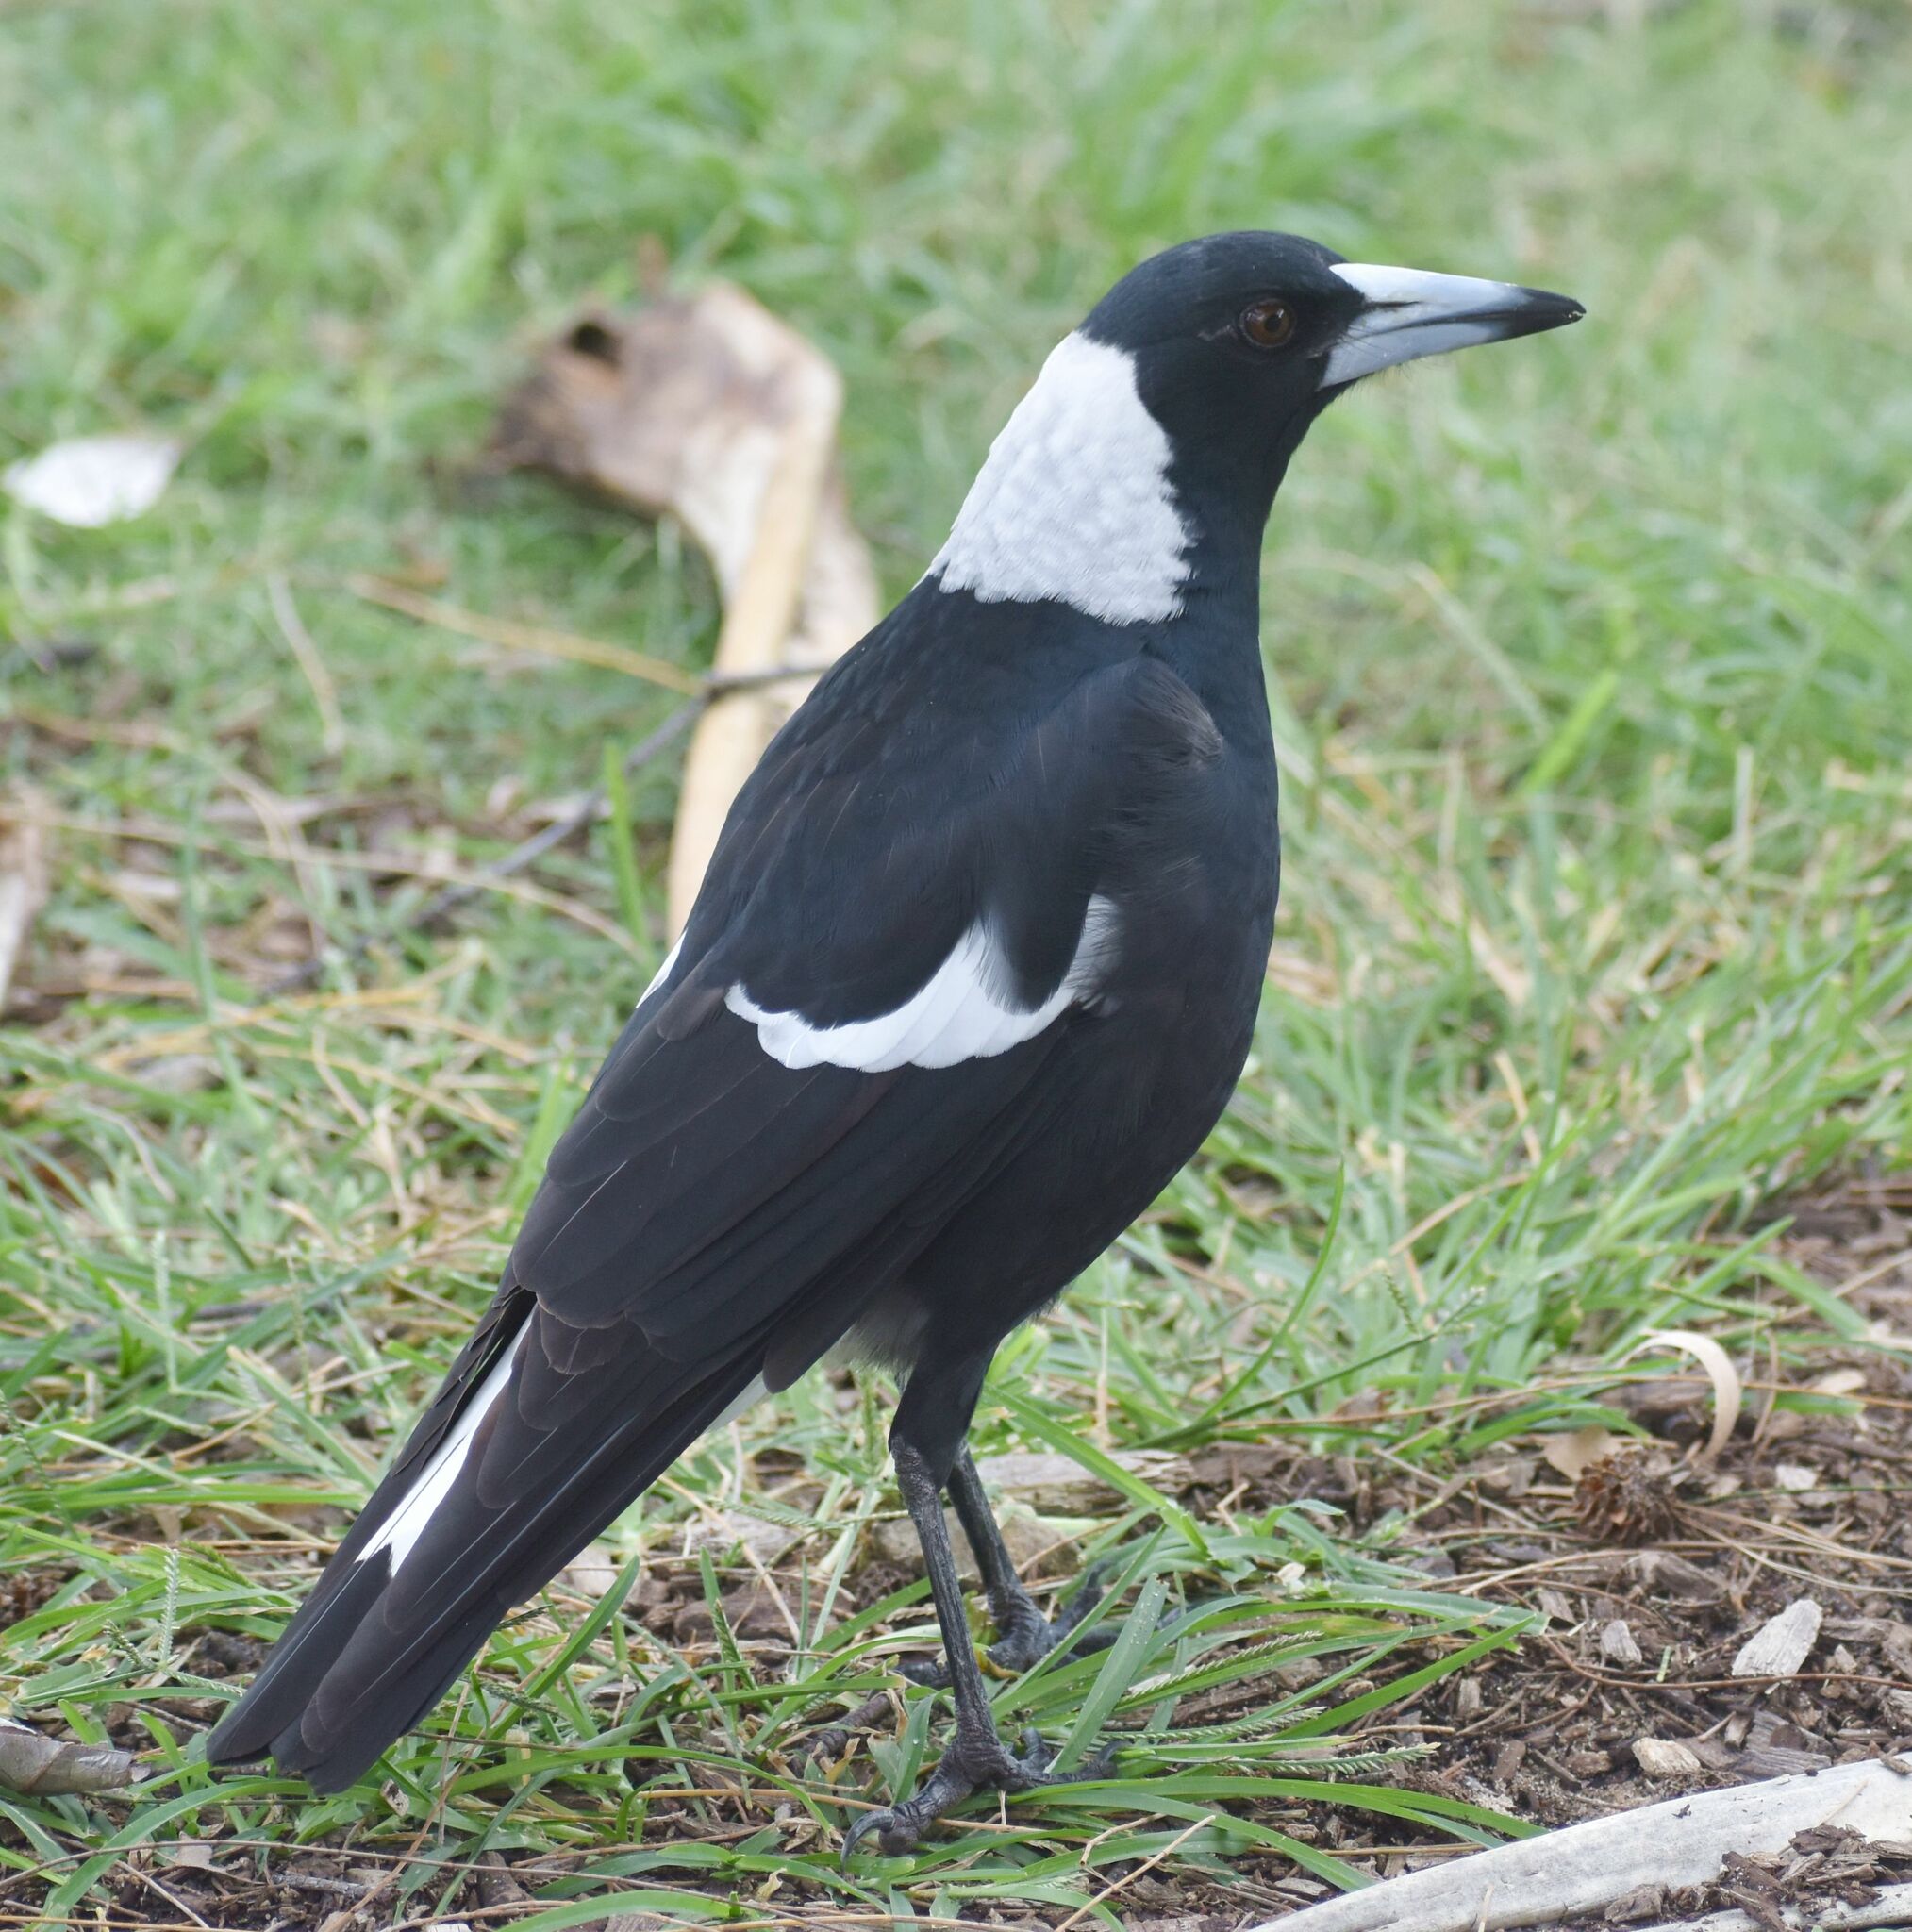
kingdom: Animalia
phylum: Chordata
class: Aves
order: Passeriformes
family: Cracticidae
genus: Gymnorhina
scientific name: Gymnorhina tibicen
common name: Australian magpie
